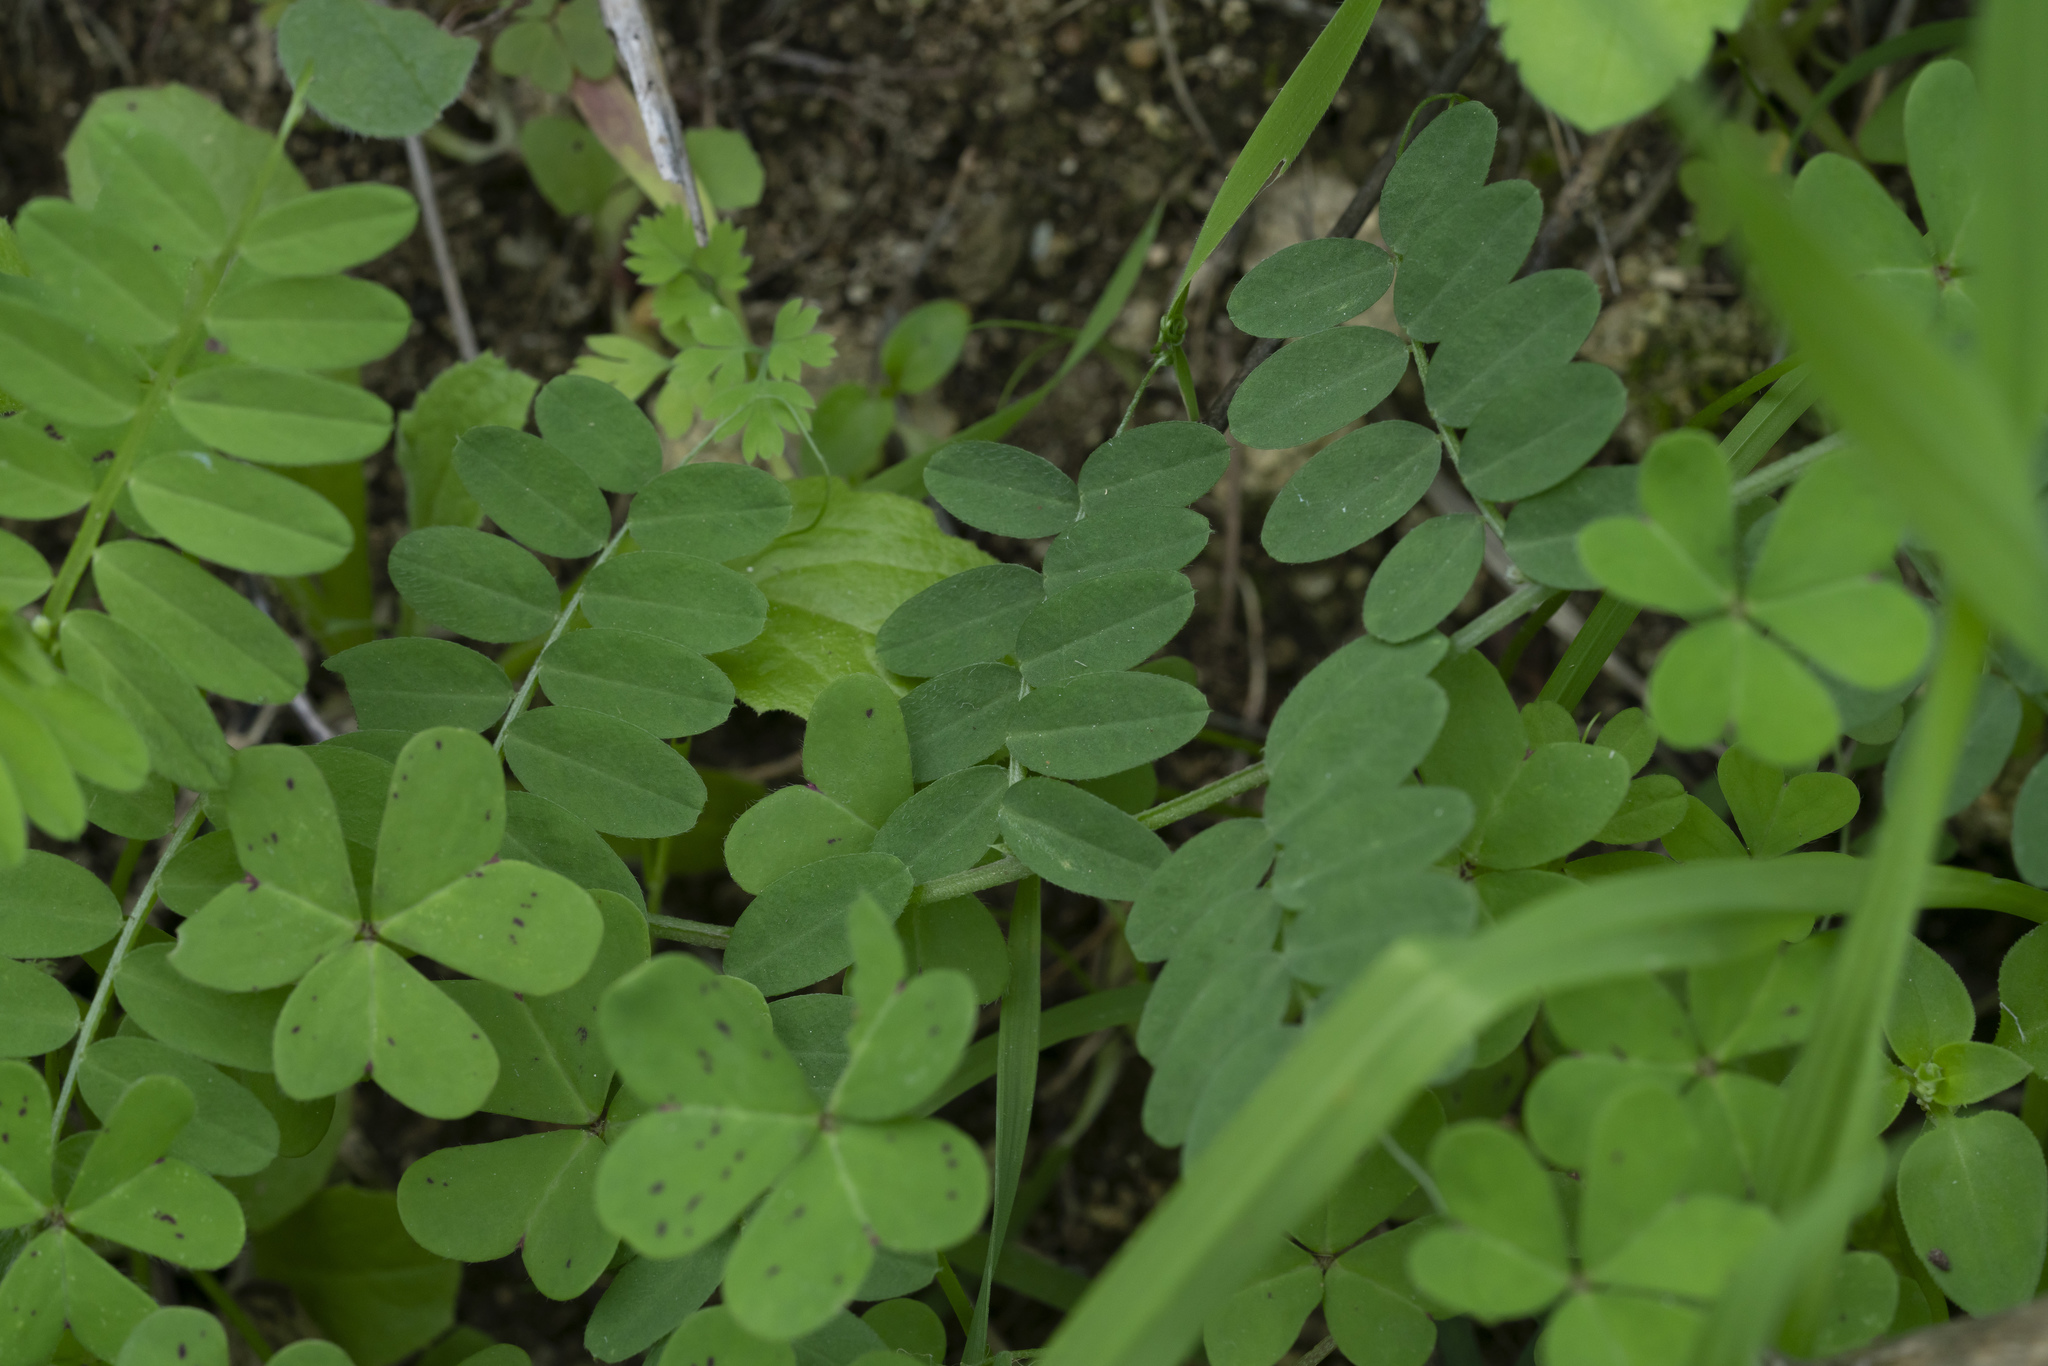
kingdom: Plantae
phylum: Tracheophyta
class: Magnoliopsida
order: Fabales
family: Fabaceae
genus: Vicia
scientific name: Vicia
